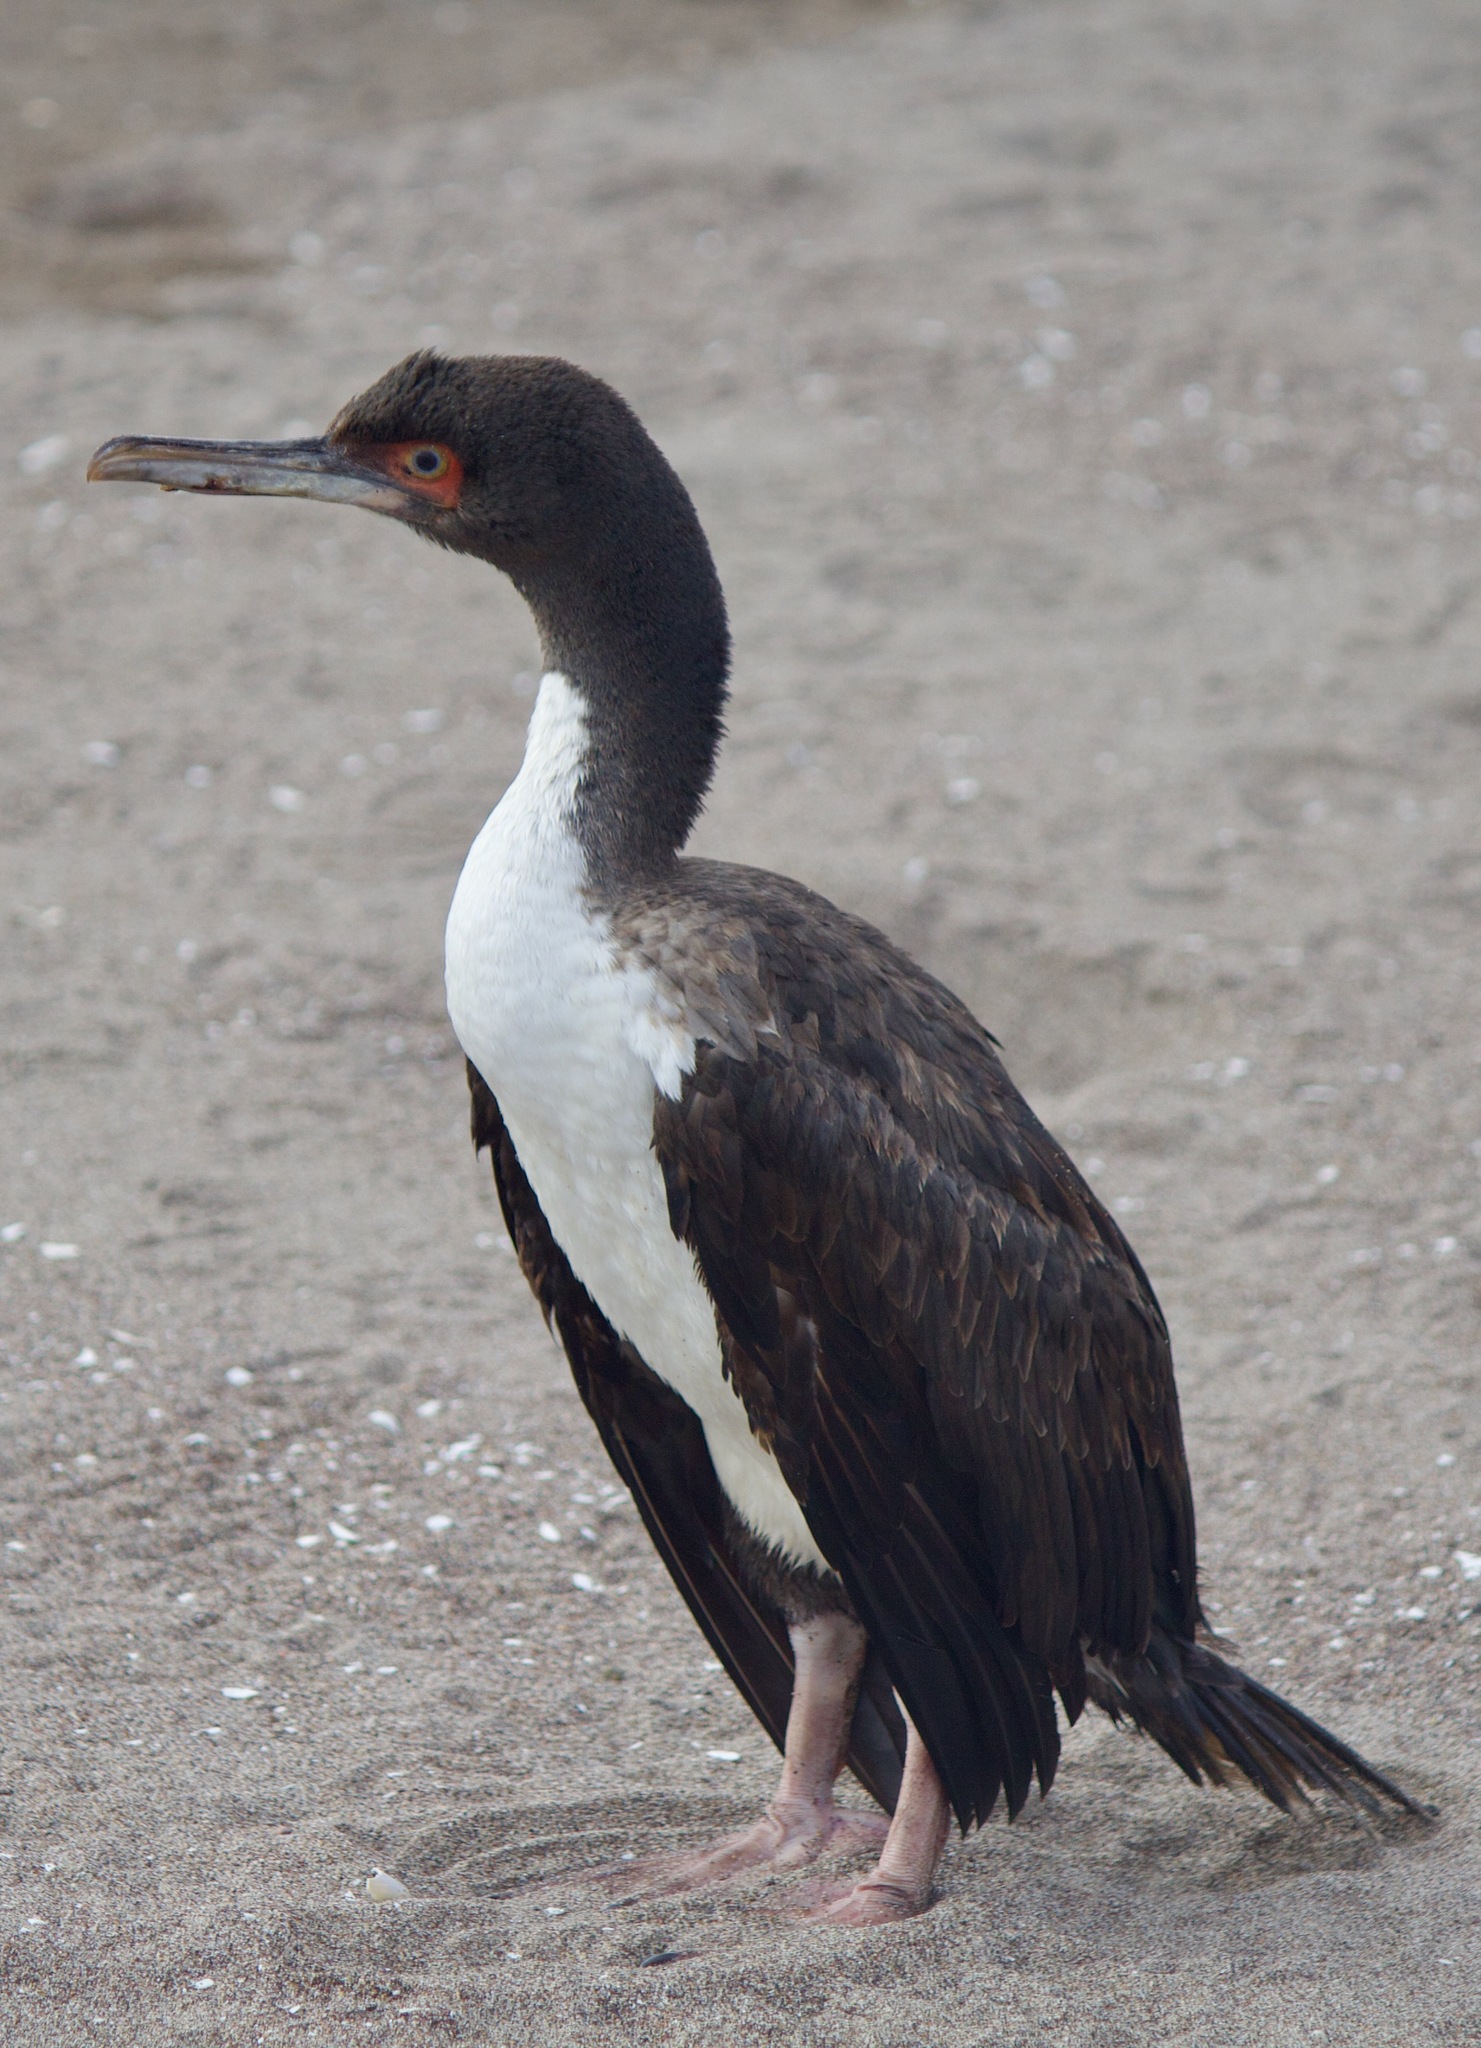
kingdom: Animalia
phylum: Chordata
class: Aves
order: Suliformes
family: Phalacrocoracidae
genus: Leucocarbo
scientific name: Leucocarbo bougainvillii
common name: Guanay cormorant
